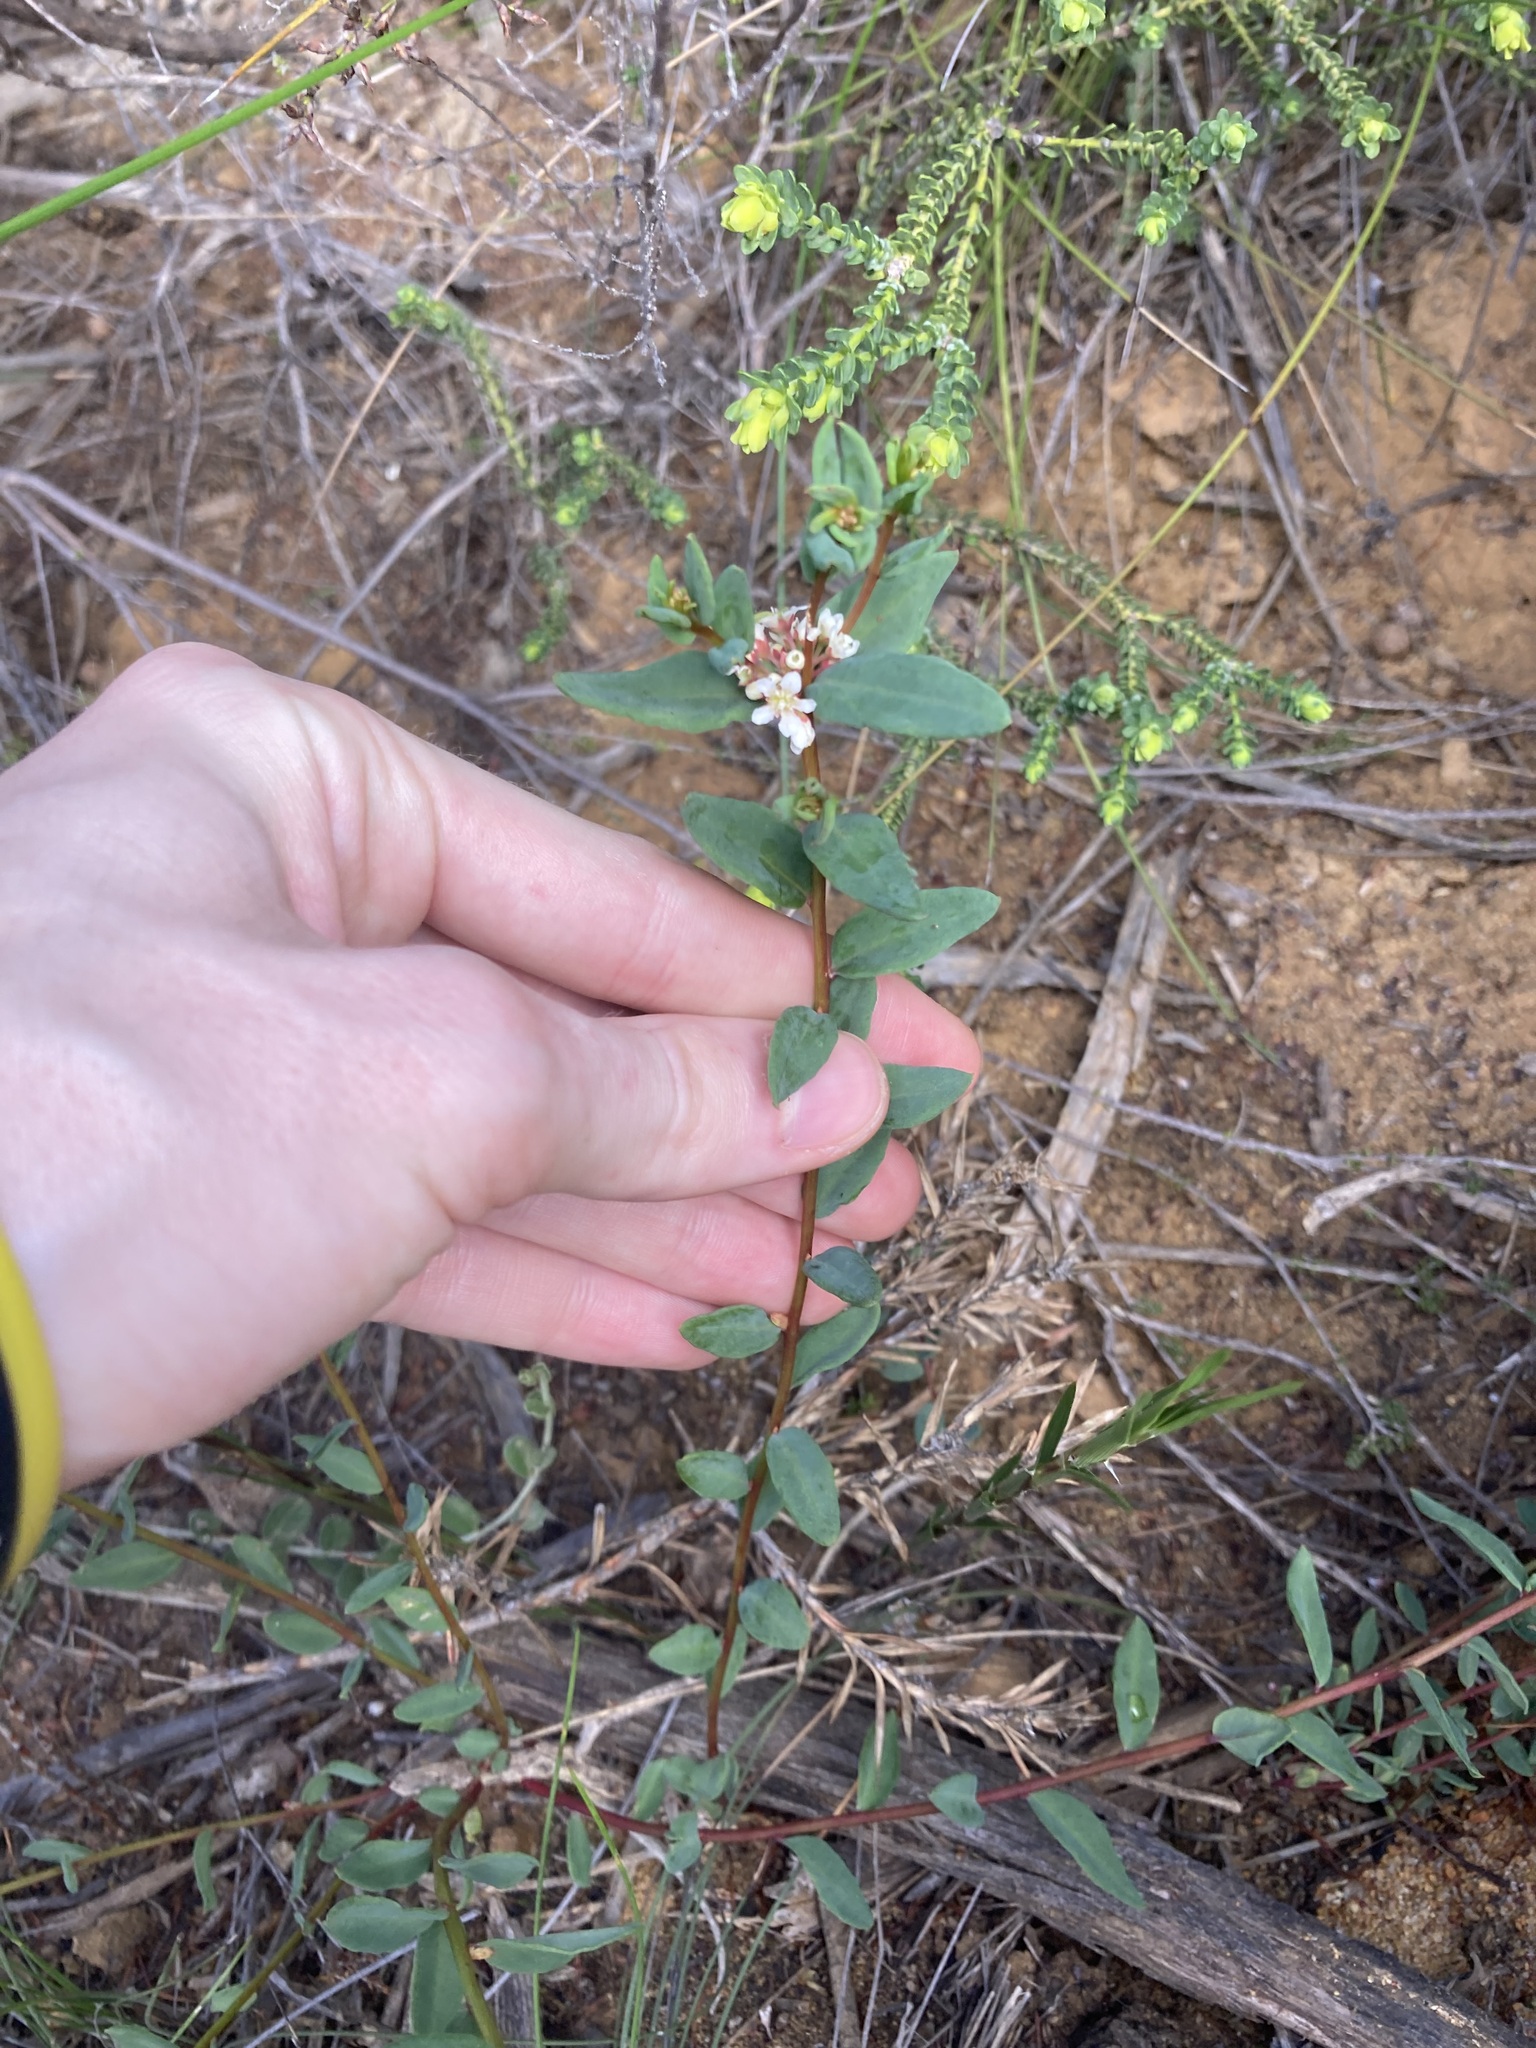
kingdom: Plantae
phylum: Tracheophyta
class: Magnoliopsida
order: Malpighiales
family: Euphorbiaceae
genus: Monotaxis
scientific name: Monotaxis bracteata
